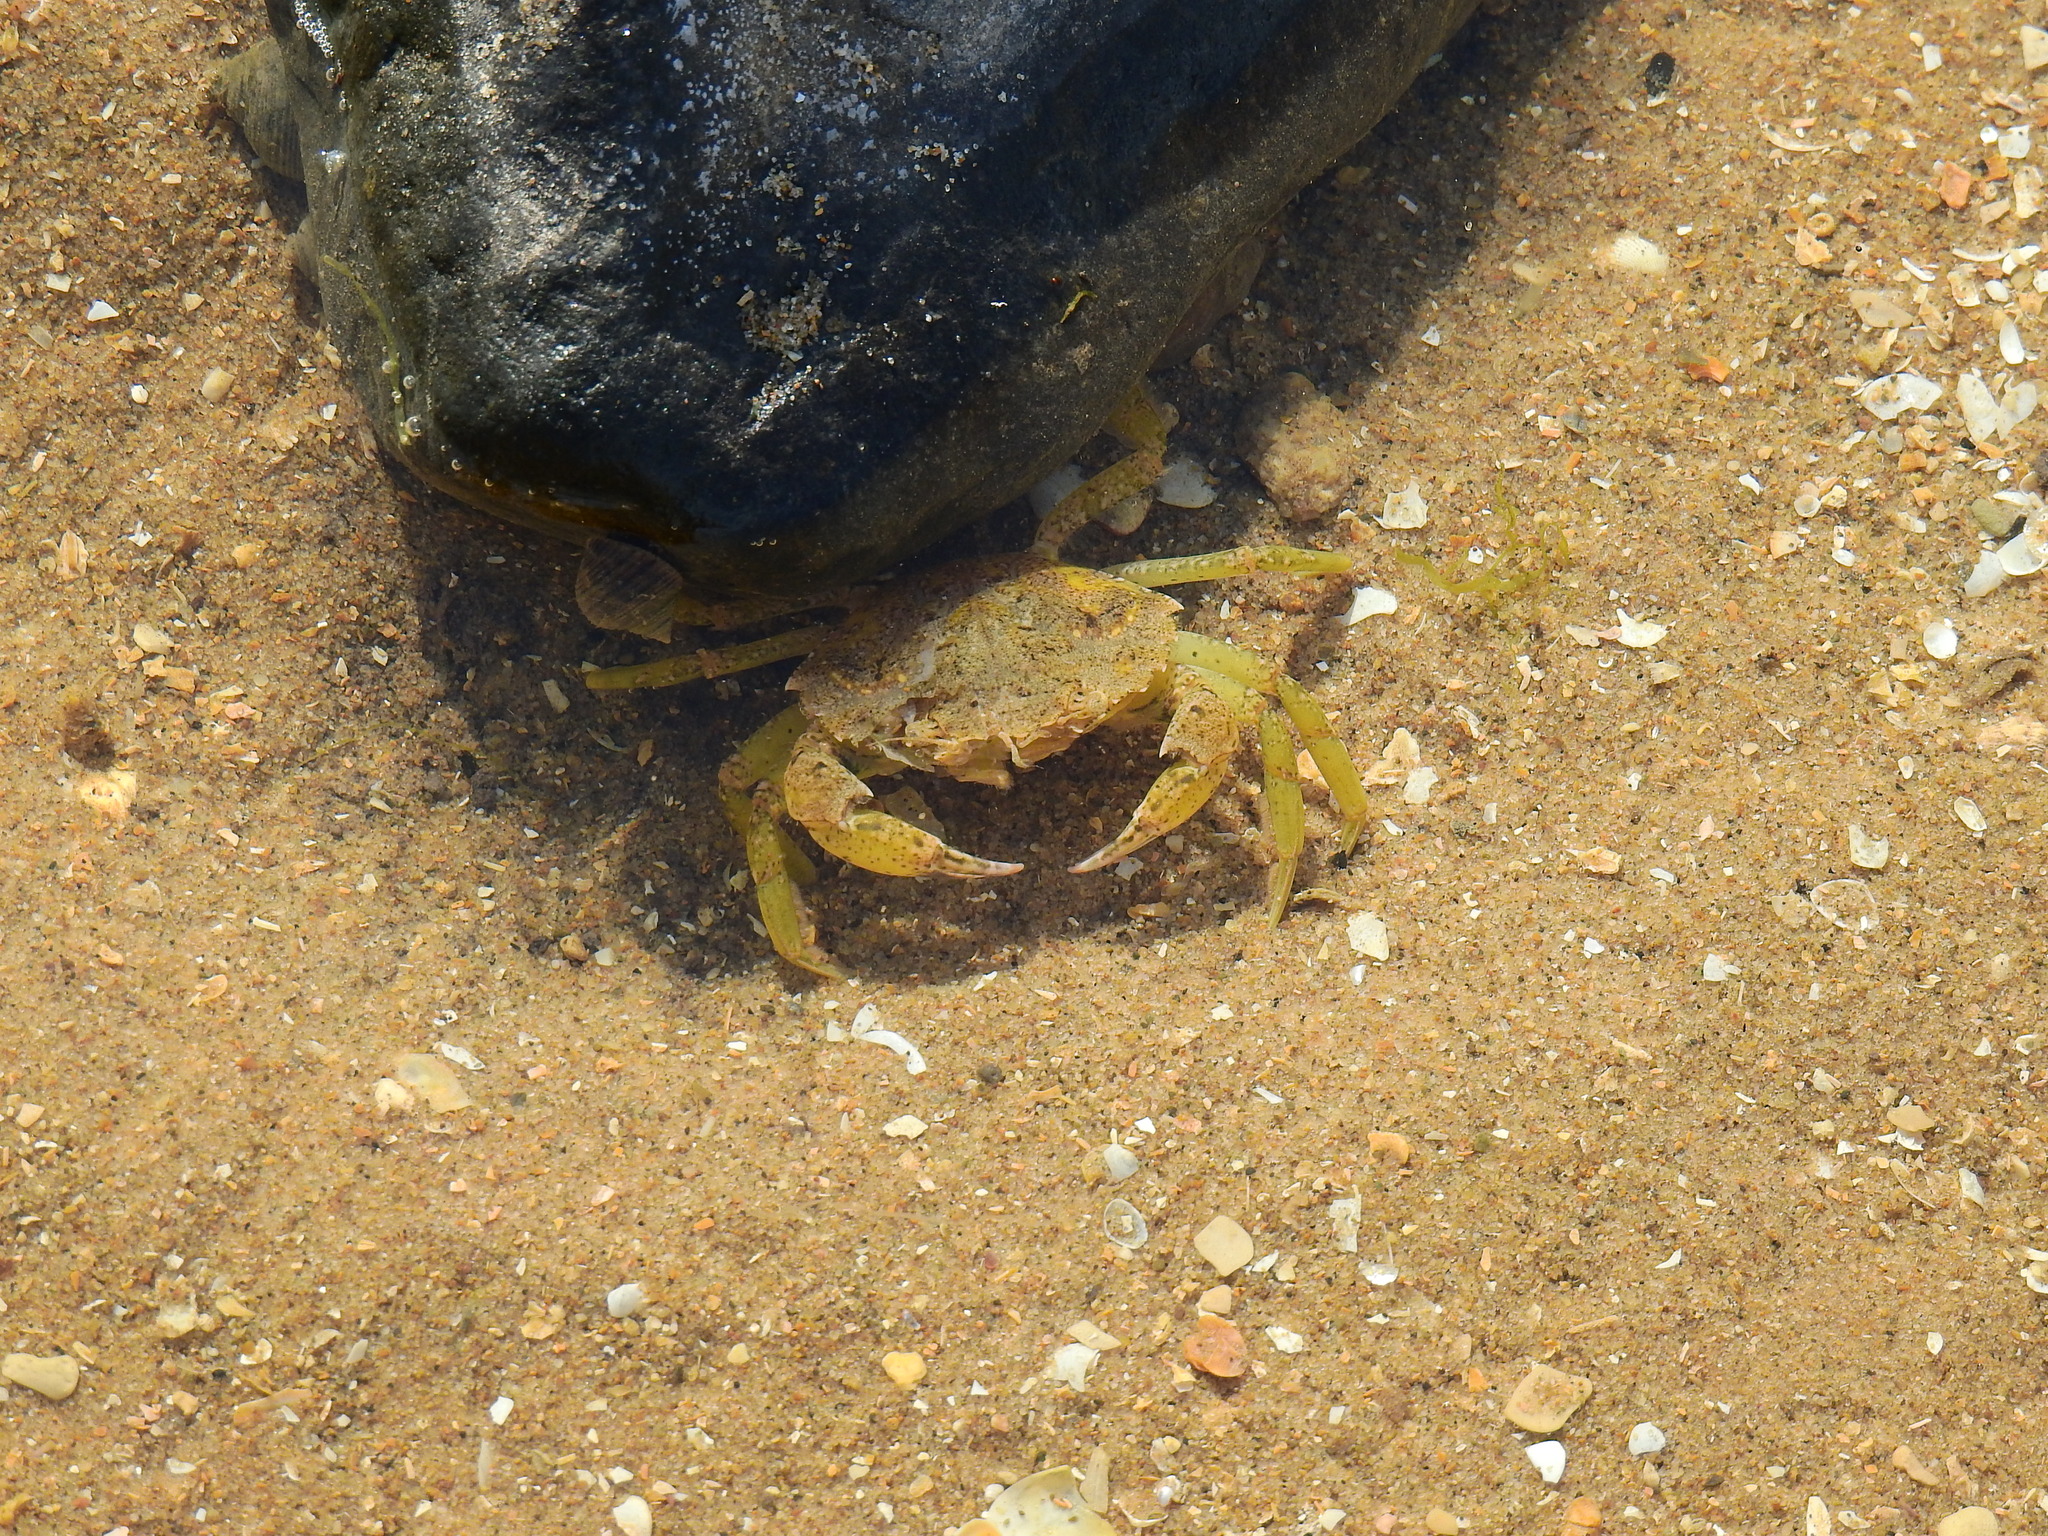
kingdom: Animalia
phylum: Arthropoda
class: Malacostraca
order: Decapoda
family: Carcinidae
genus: Carcinus
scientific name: Carcinus maenas
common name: European green crab
